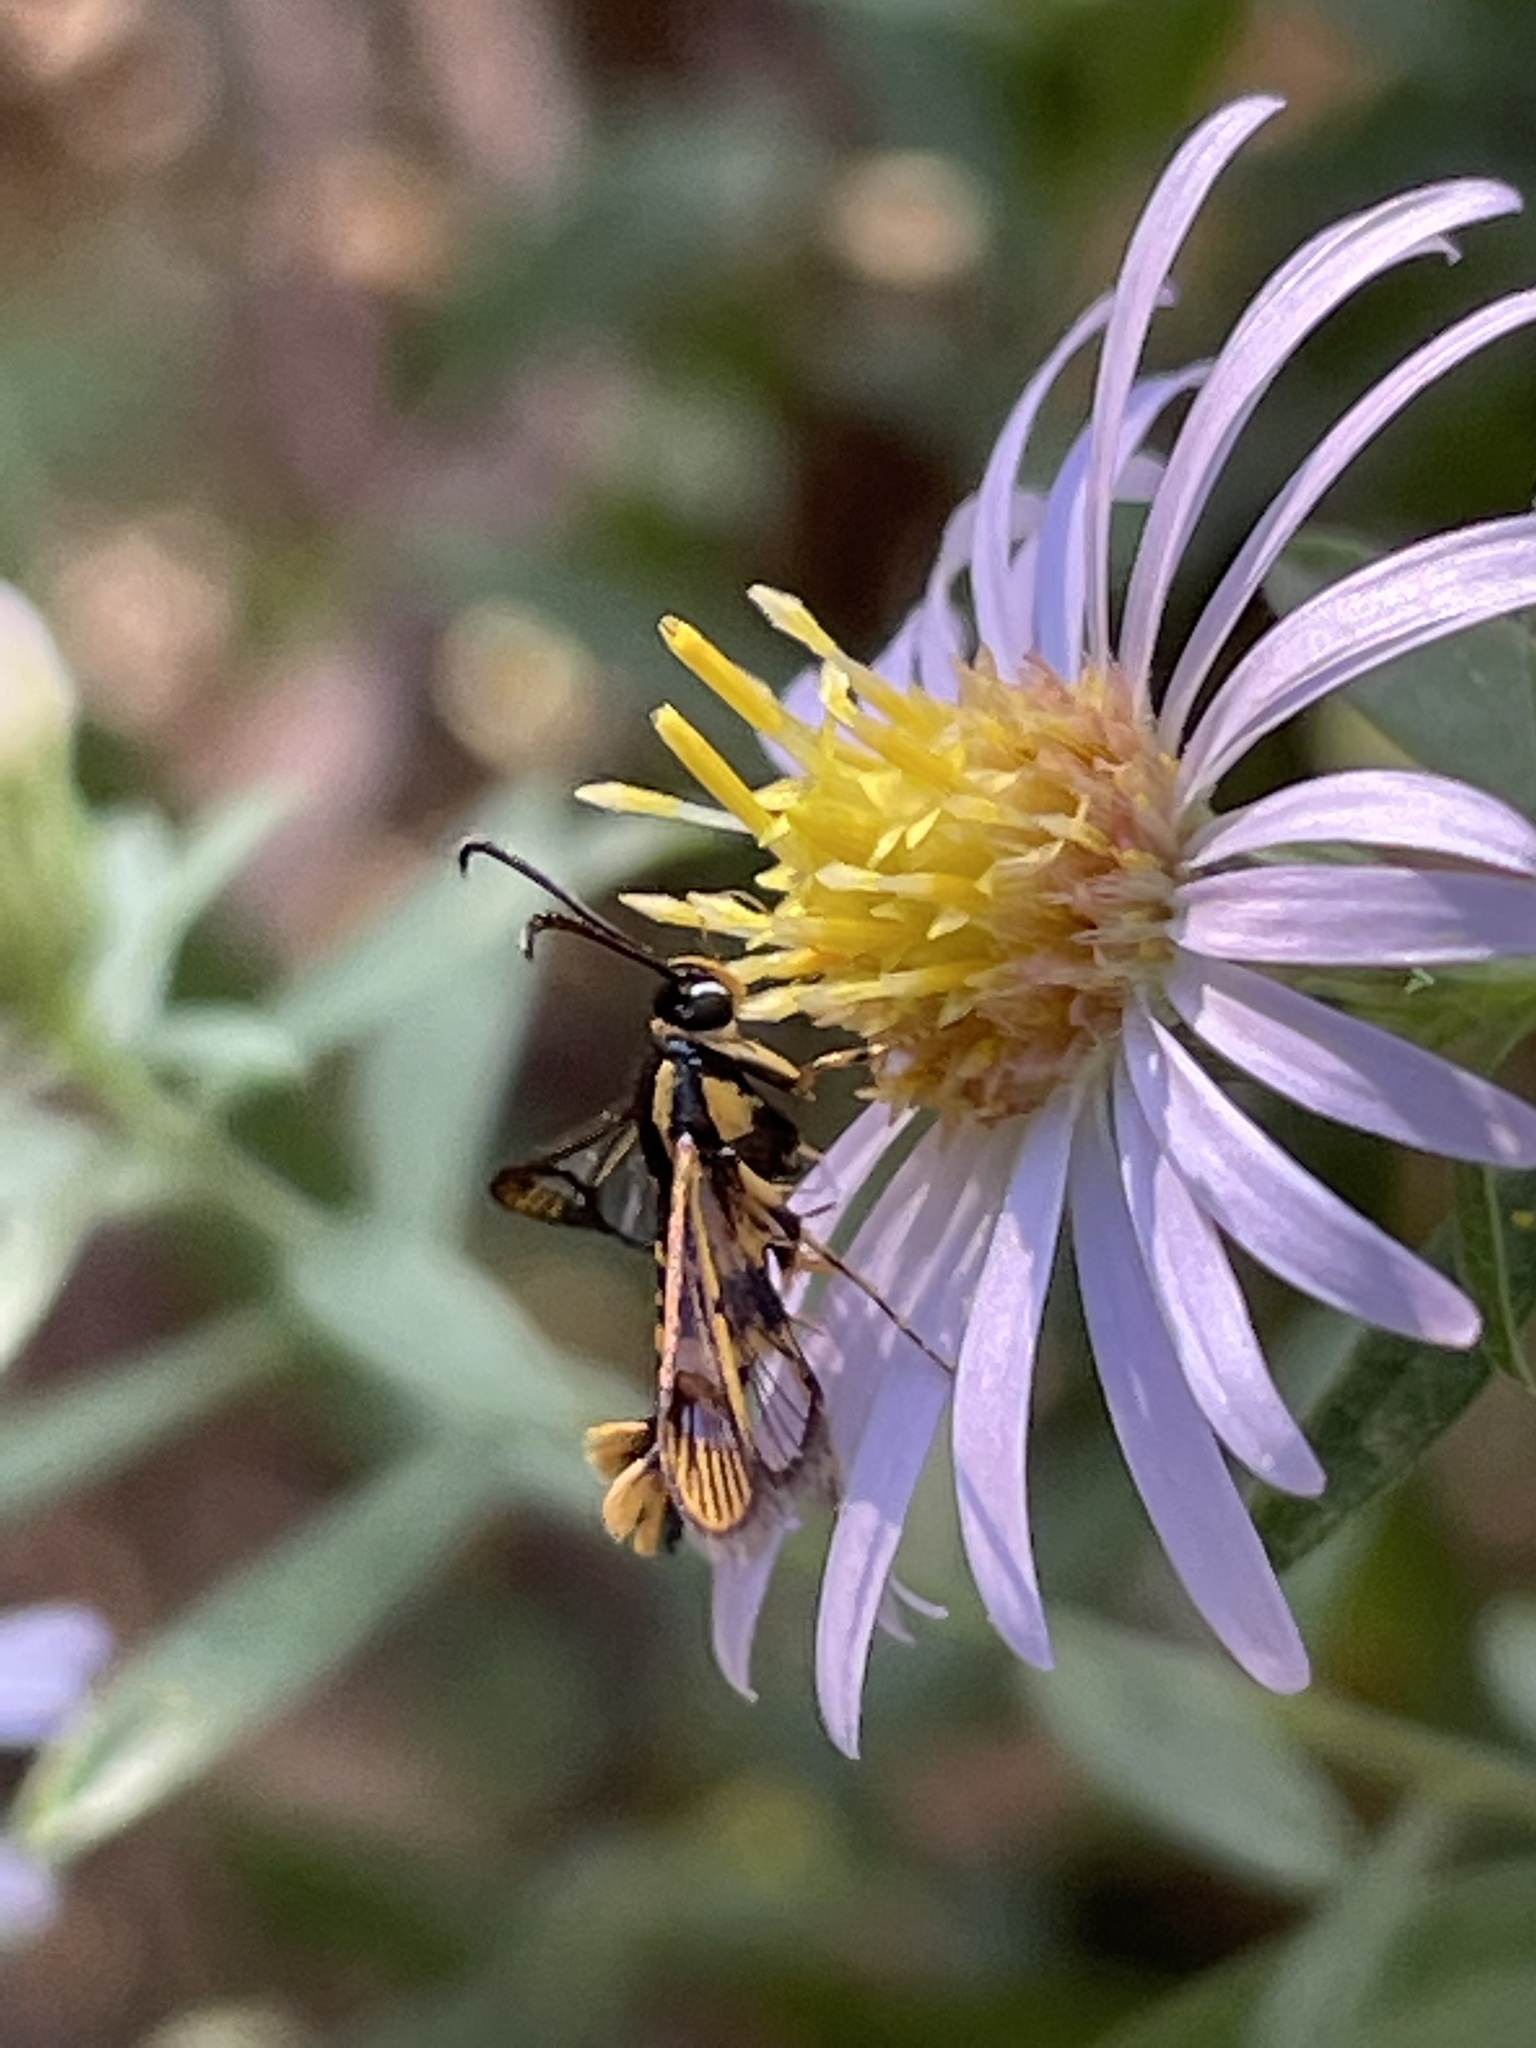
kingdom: Animalia
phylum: Arthropoda
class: Insecta
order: Lepidoptera
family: Sesiidae
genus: Synanthedon
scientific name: Synanthedon scitula
